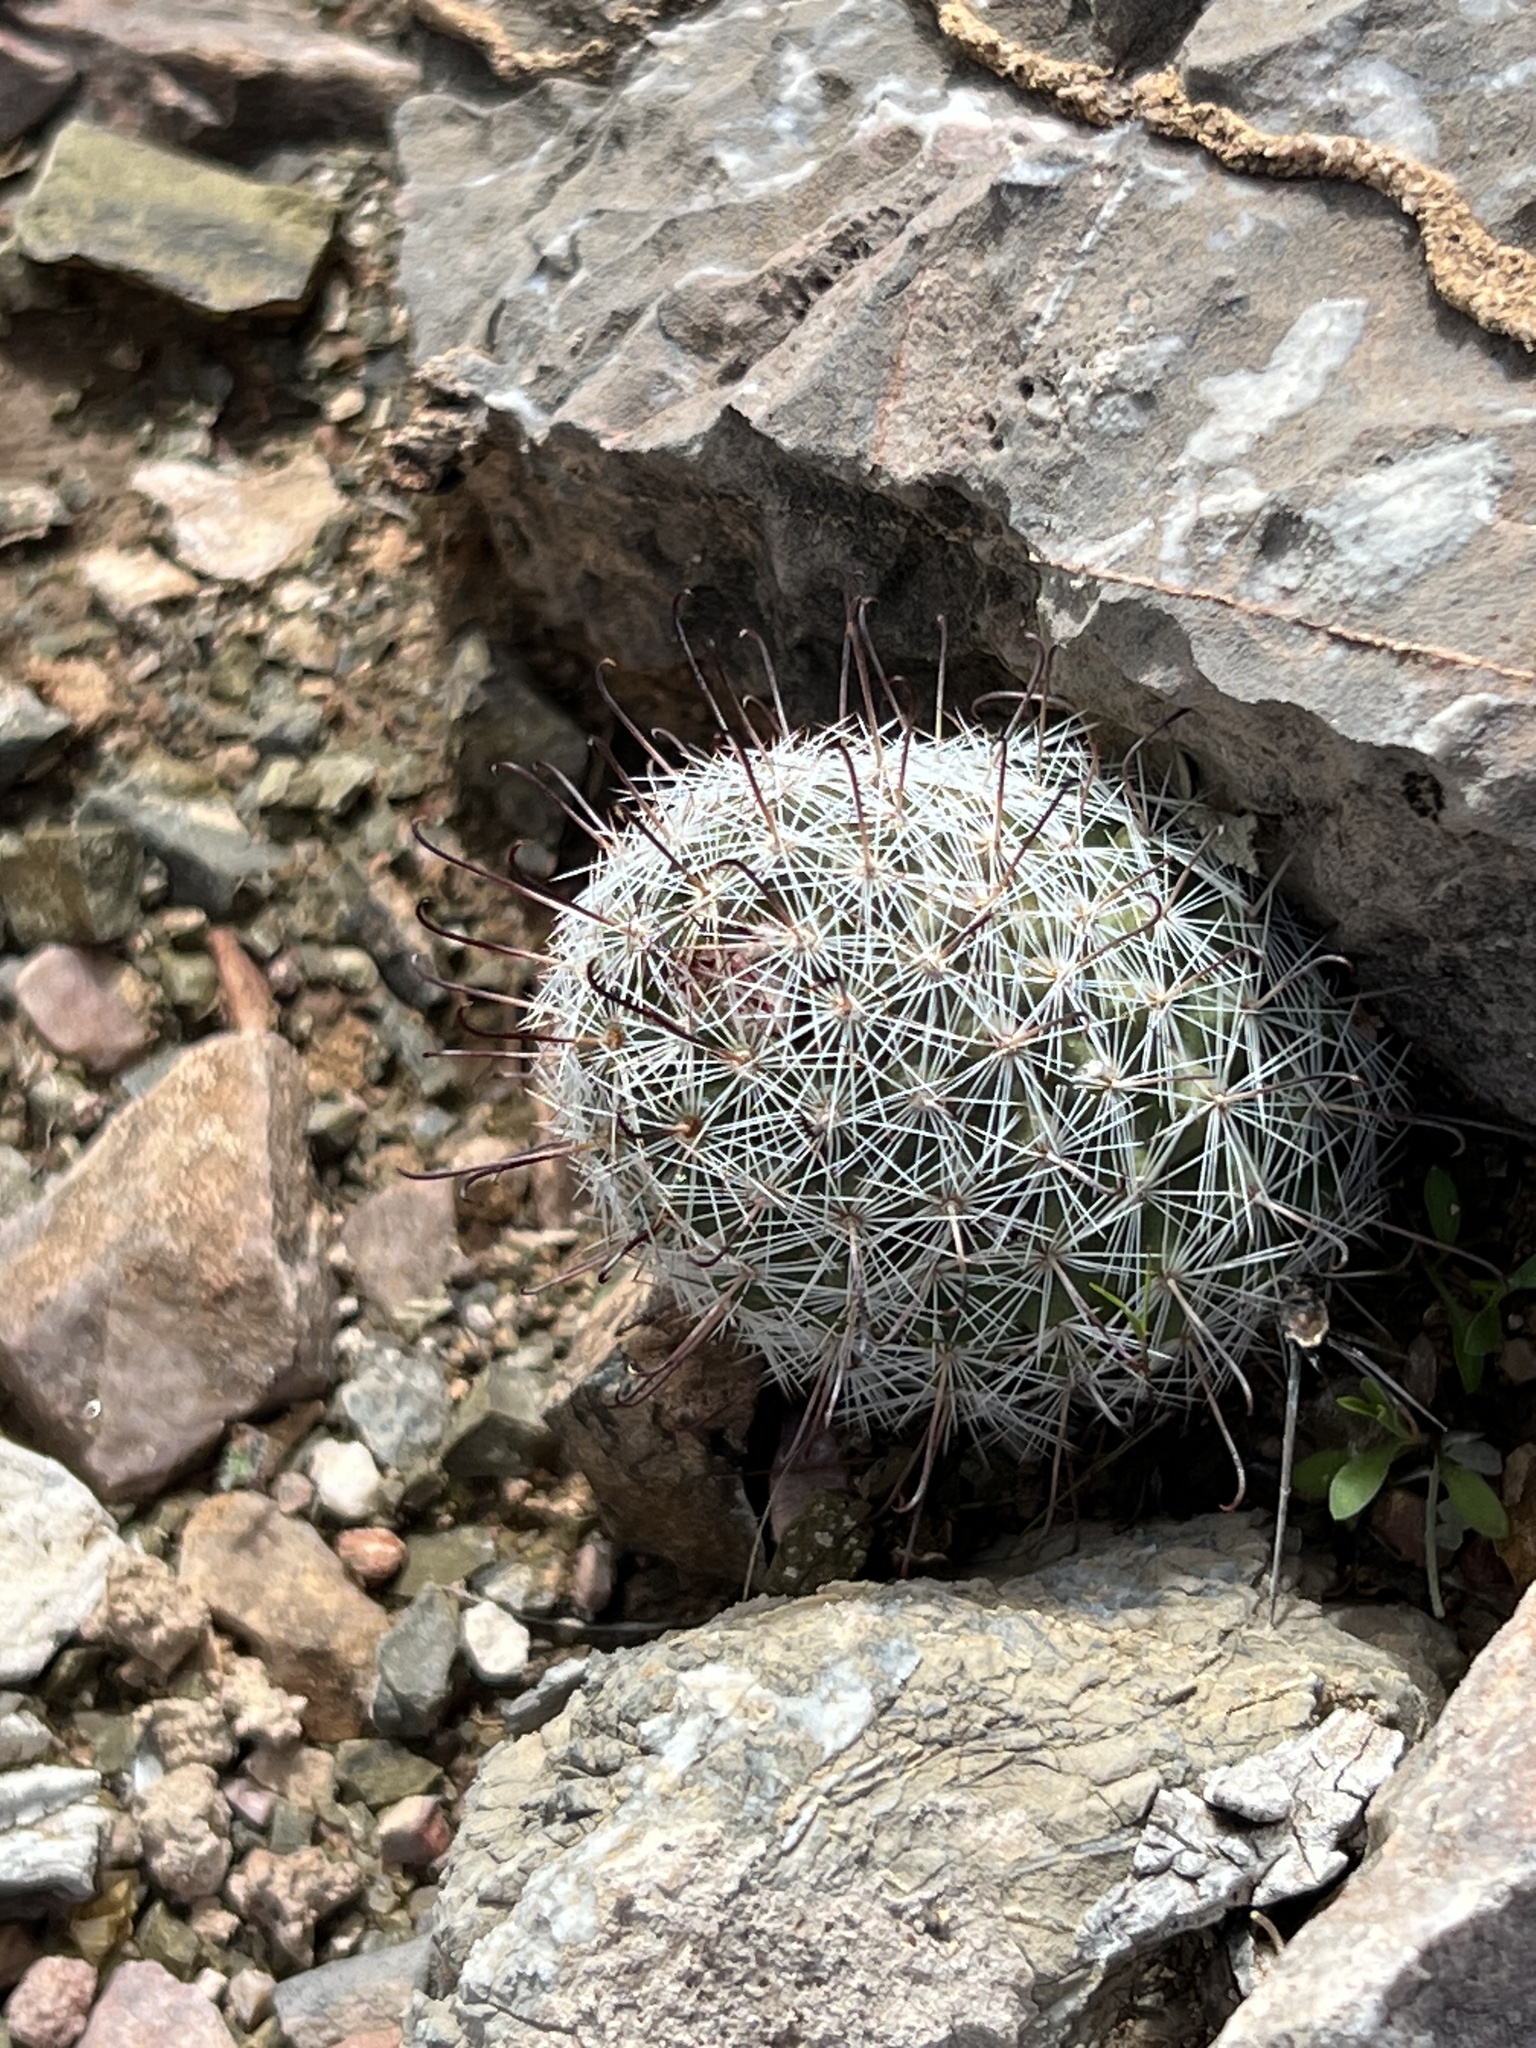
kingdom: Plantae
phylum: Tracheophyta
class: Magnoliopsida
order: Caryophyllales
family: Cactaceae
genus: Cochemiea
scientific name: Cochemiea grahamii
